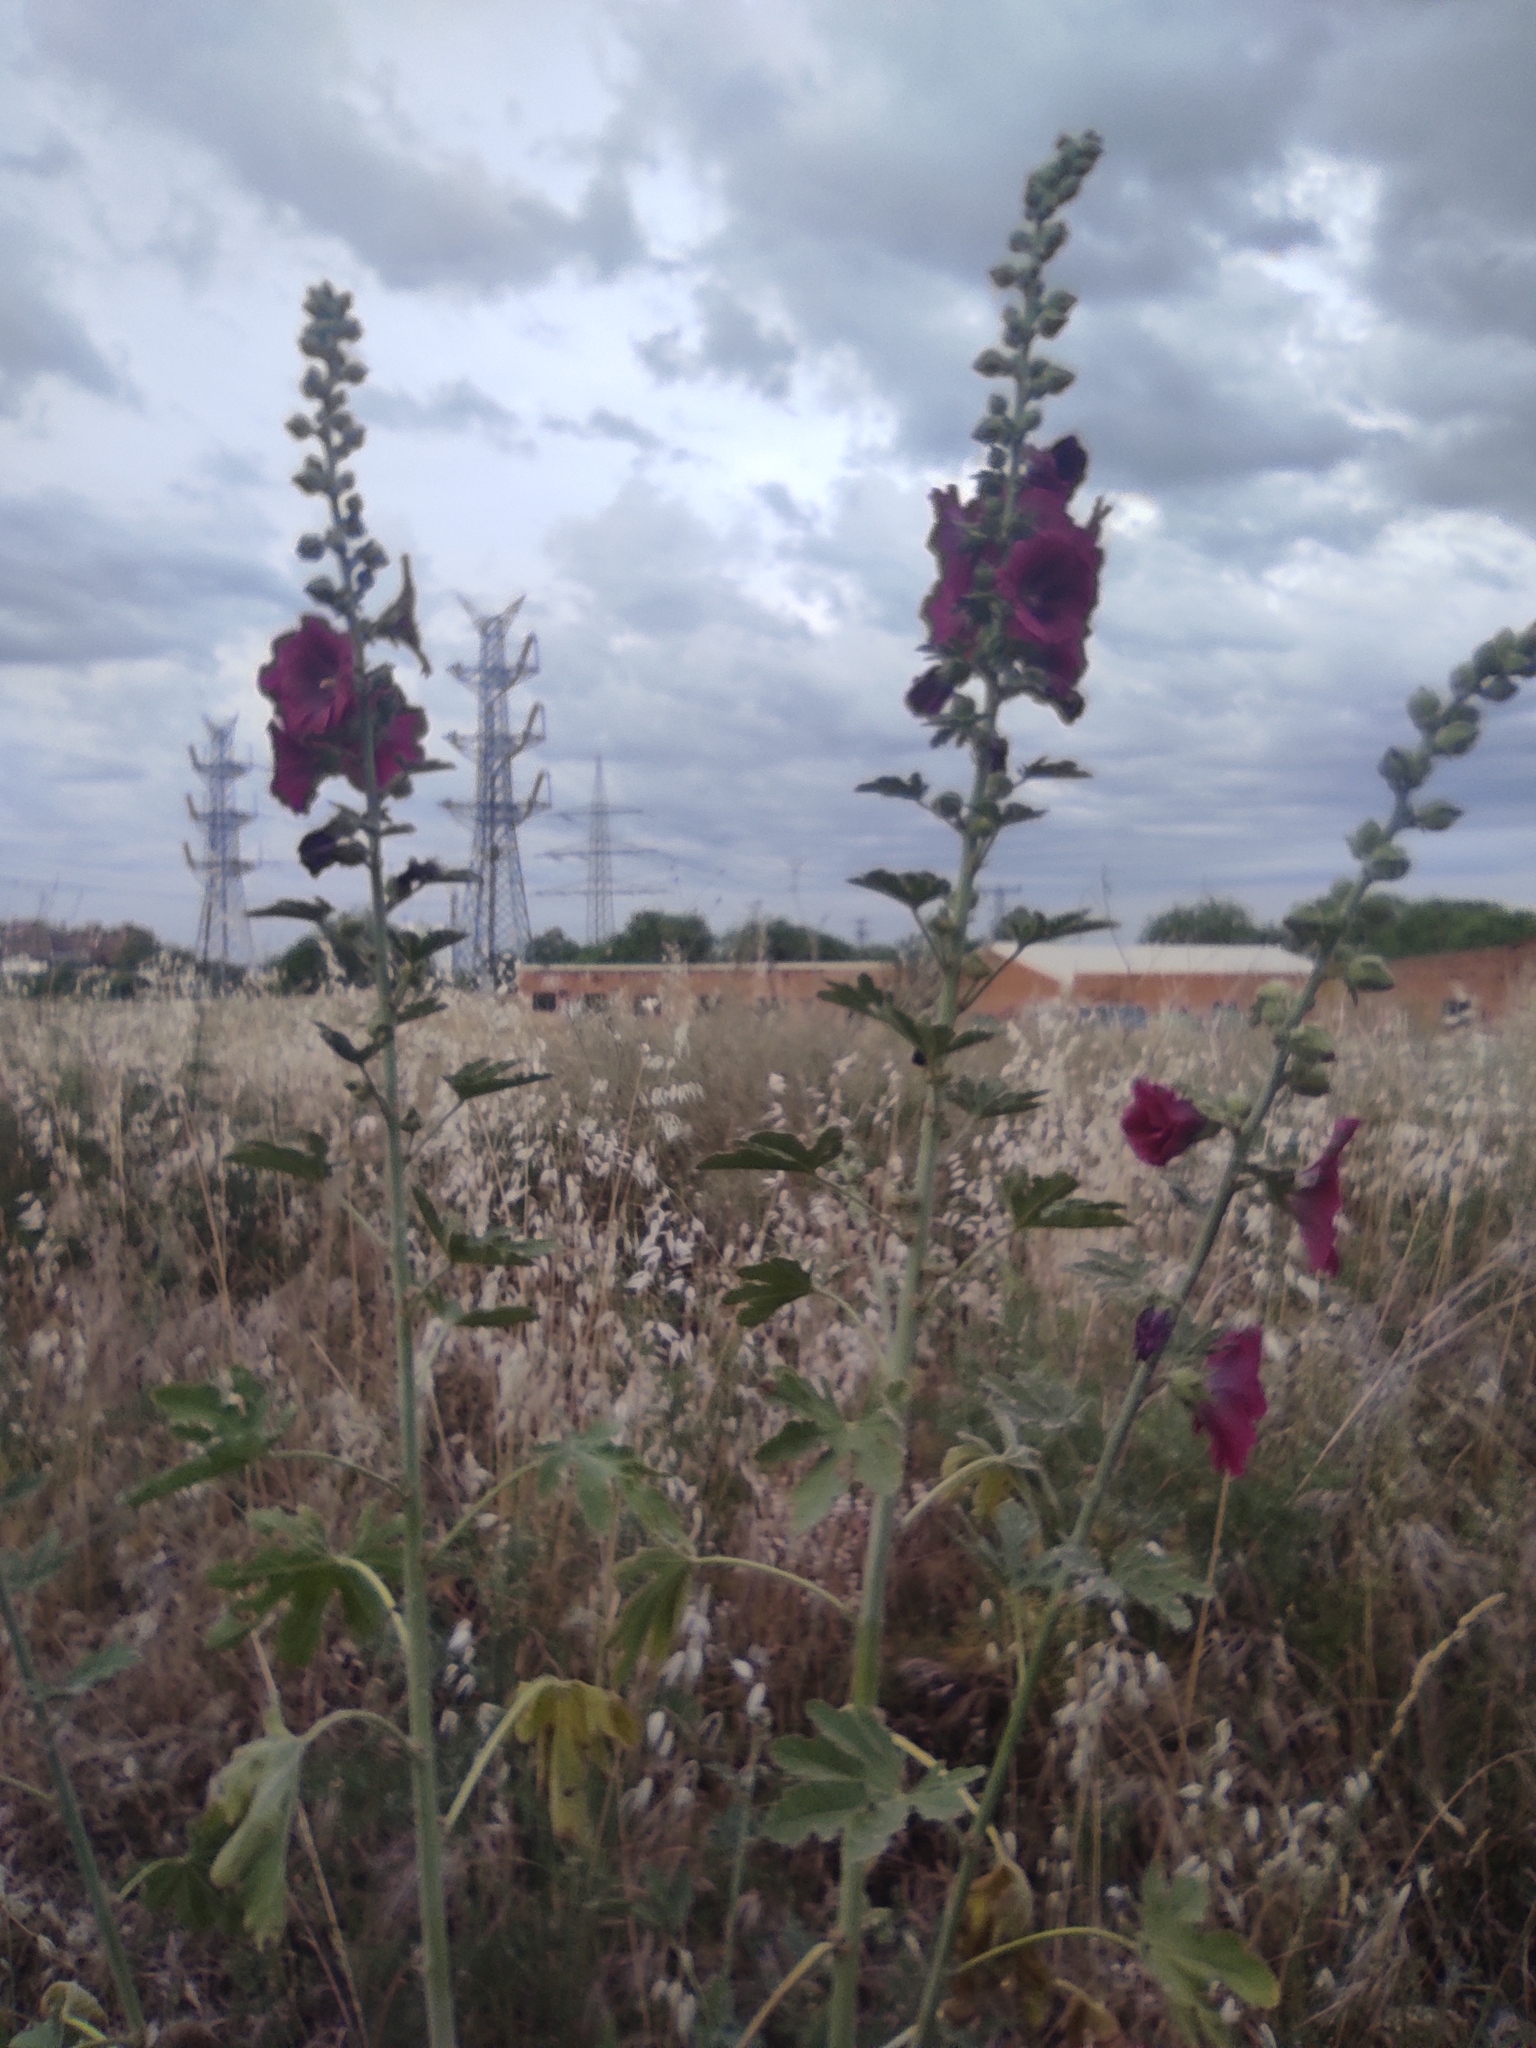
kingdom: Plantae
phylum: Tracheophyta
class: Magnoliopsida
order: Malvales
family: Malvaceae
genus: Alcea
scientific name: Alcea rosea
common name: Hollyhock
